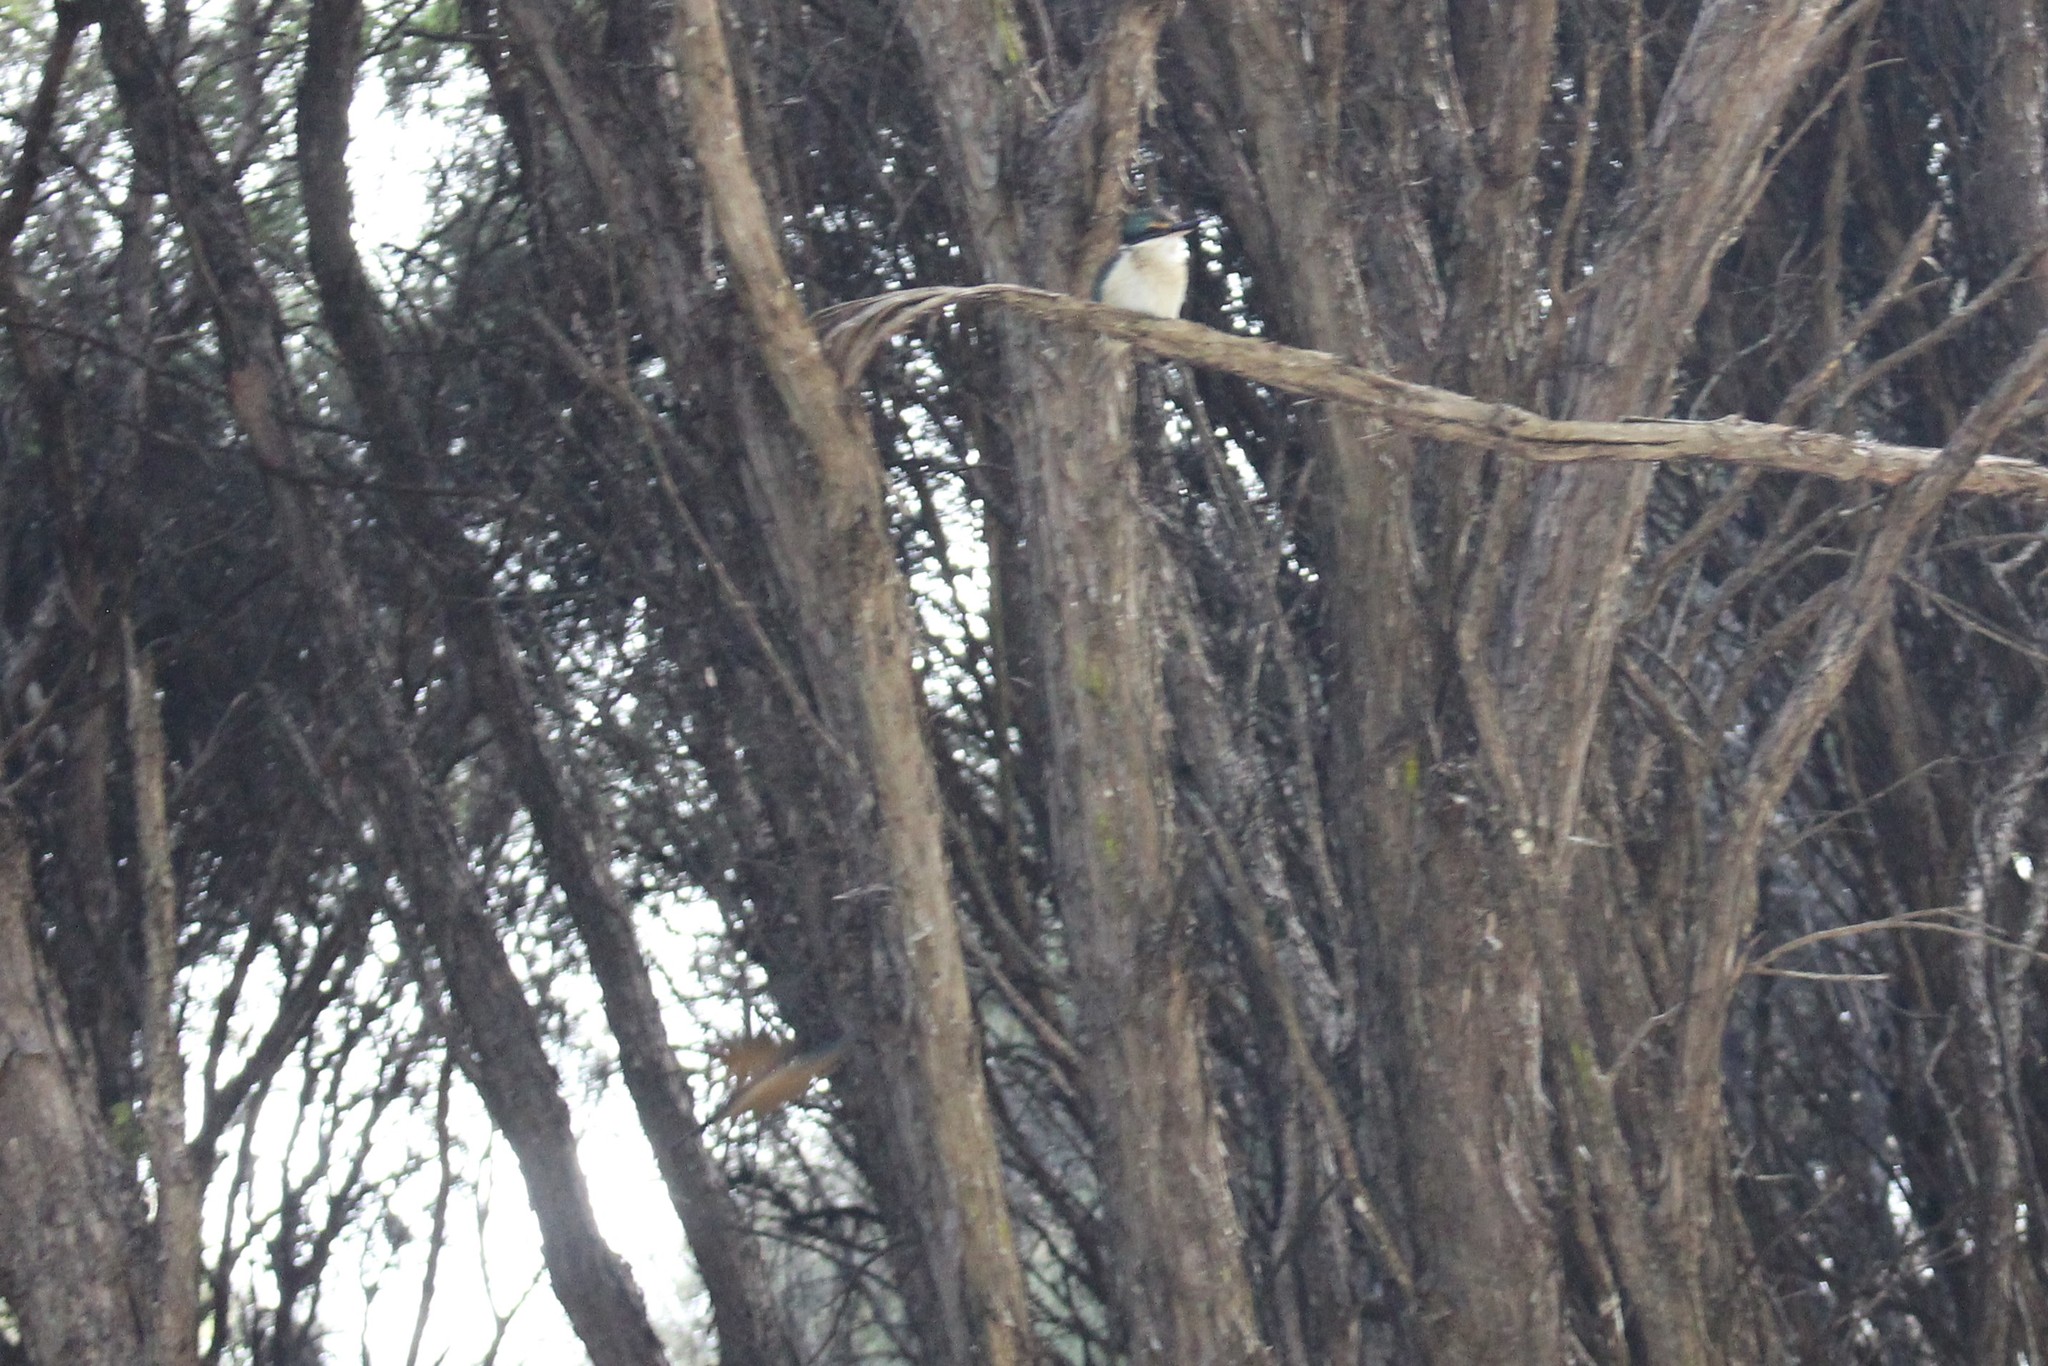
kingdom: Animalia
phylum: Chordata
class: Aves
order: Coraciiformes
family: Alcedinidae
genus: Todiramphus
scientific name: Todiramphus sanctus
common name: Sacred kingfisher
